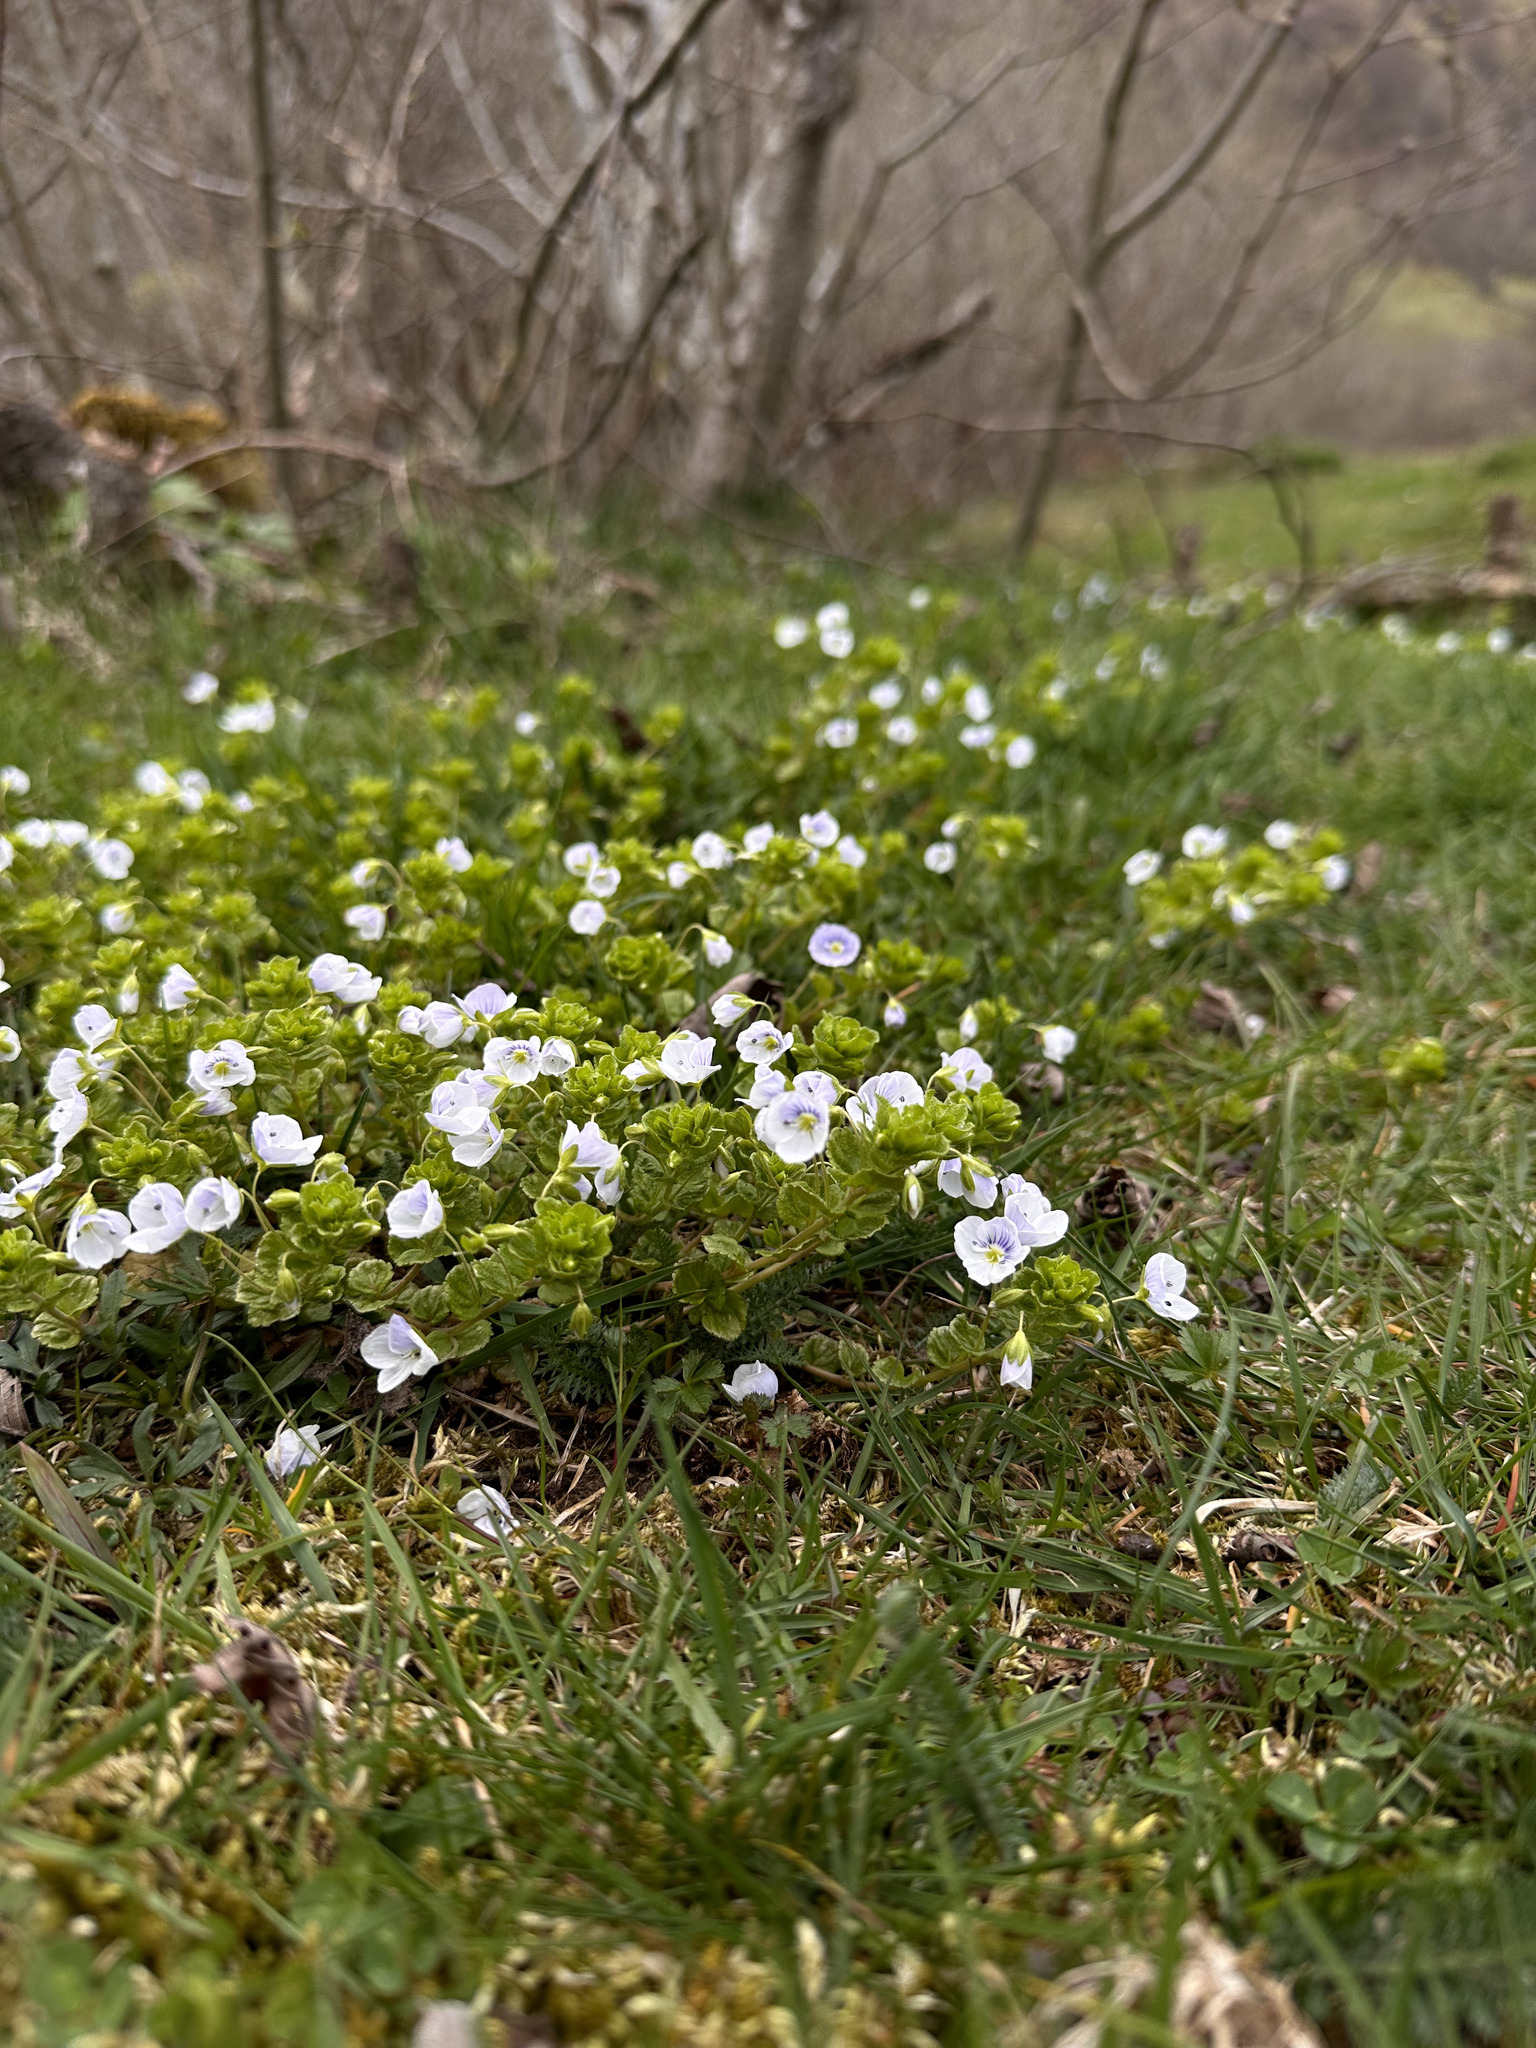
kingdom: Plantae
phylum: Tracheophyta
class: Magnoliopsida
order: Lamiales
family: Plantaginaceae
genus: Veronica
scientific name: Veronica filiformis
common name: Slender speedwell
